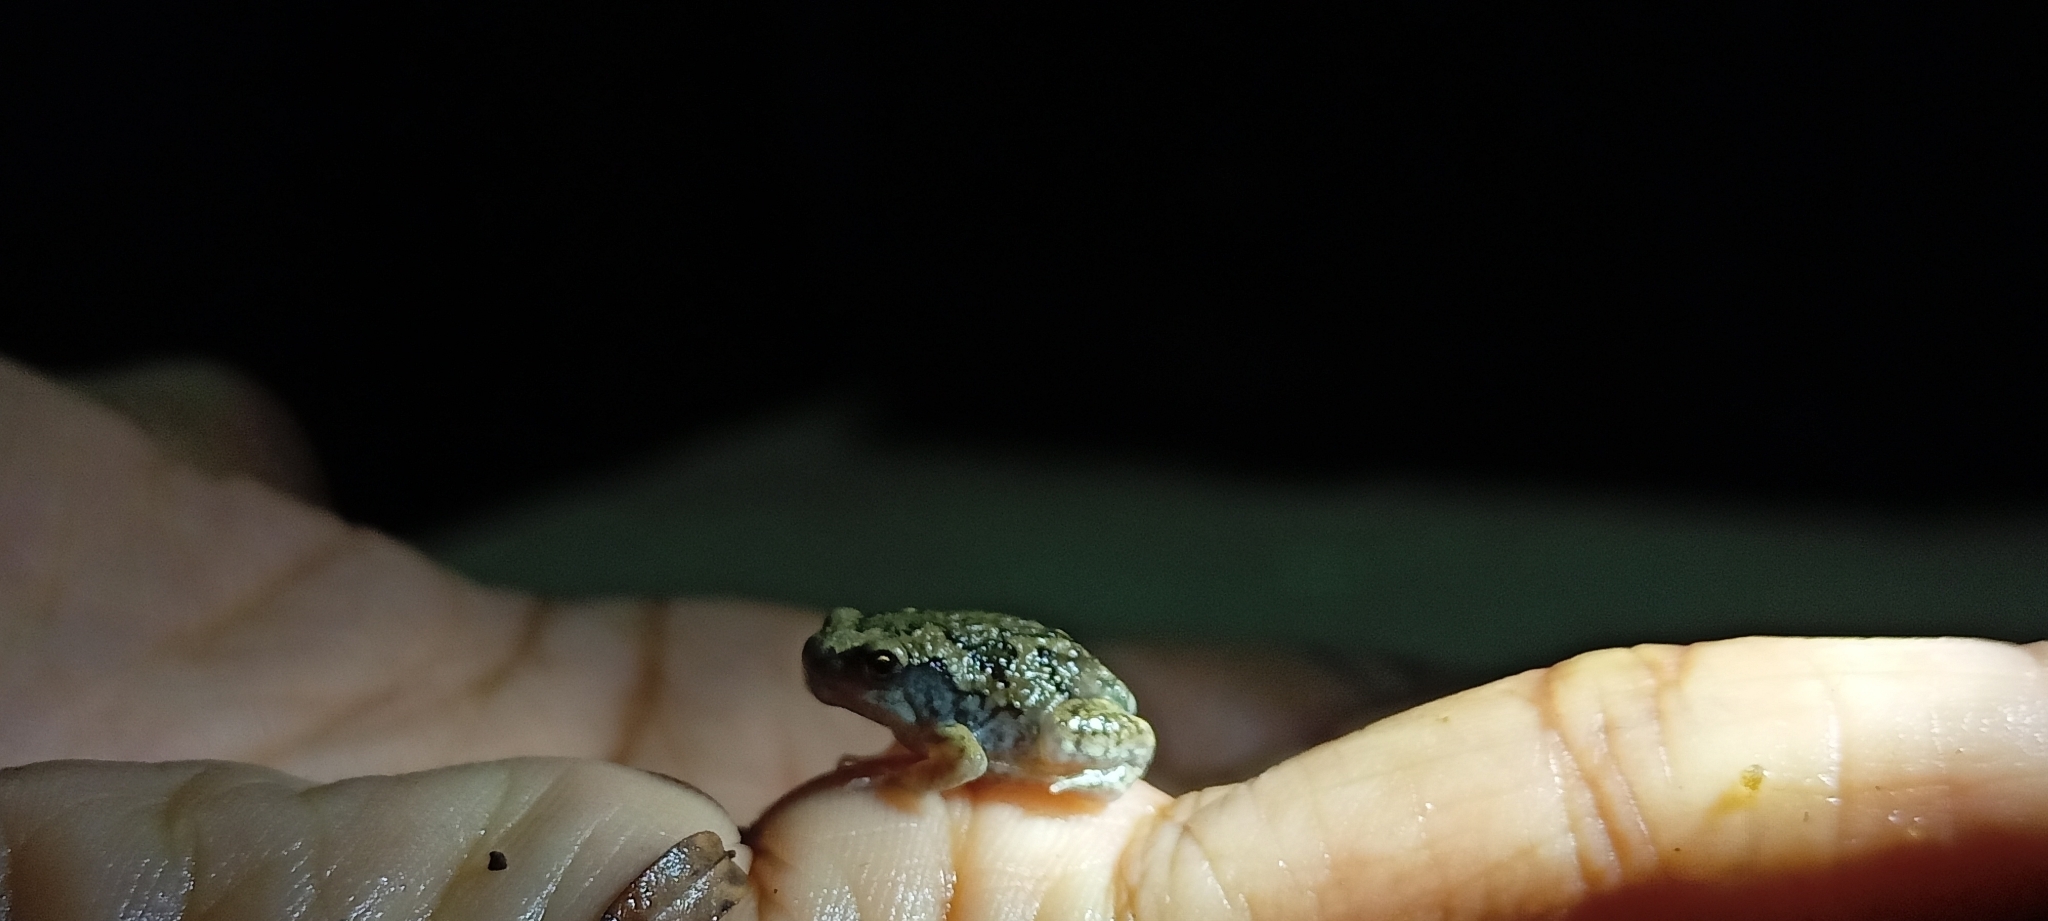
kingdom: Animalia
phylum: Chordata
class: Amphibia
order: Anura
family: Microhylidae
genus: Uperodon
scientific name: Uperodon taprobanicus
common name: Ceylon kaloula
